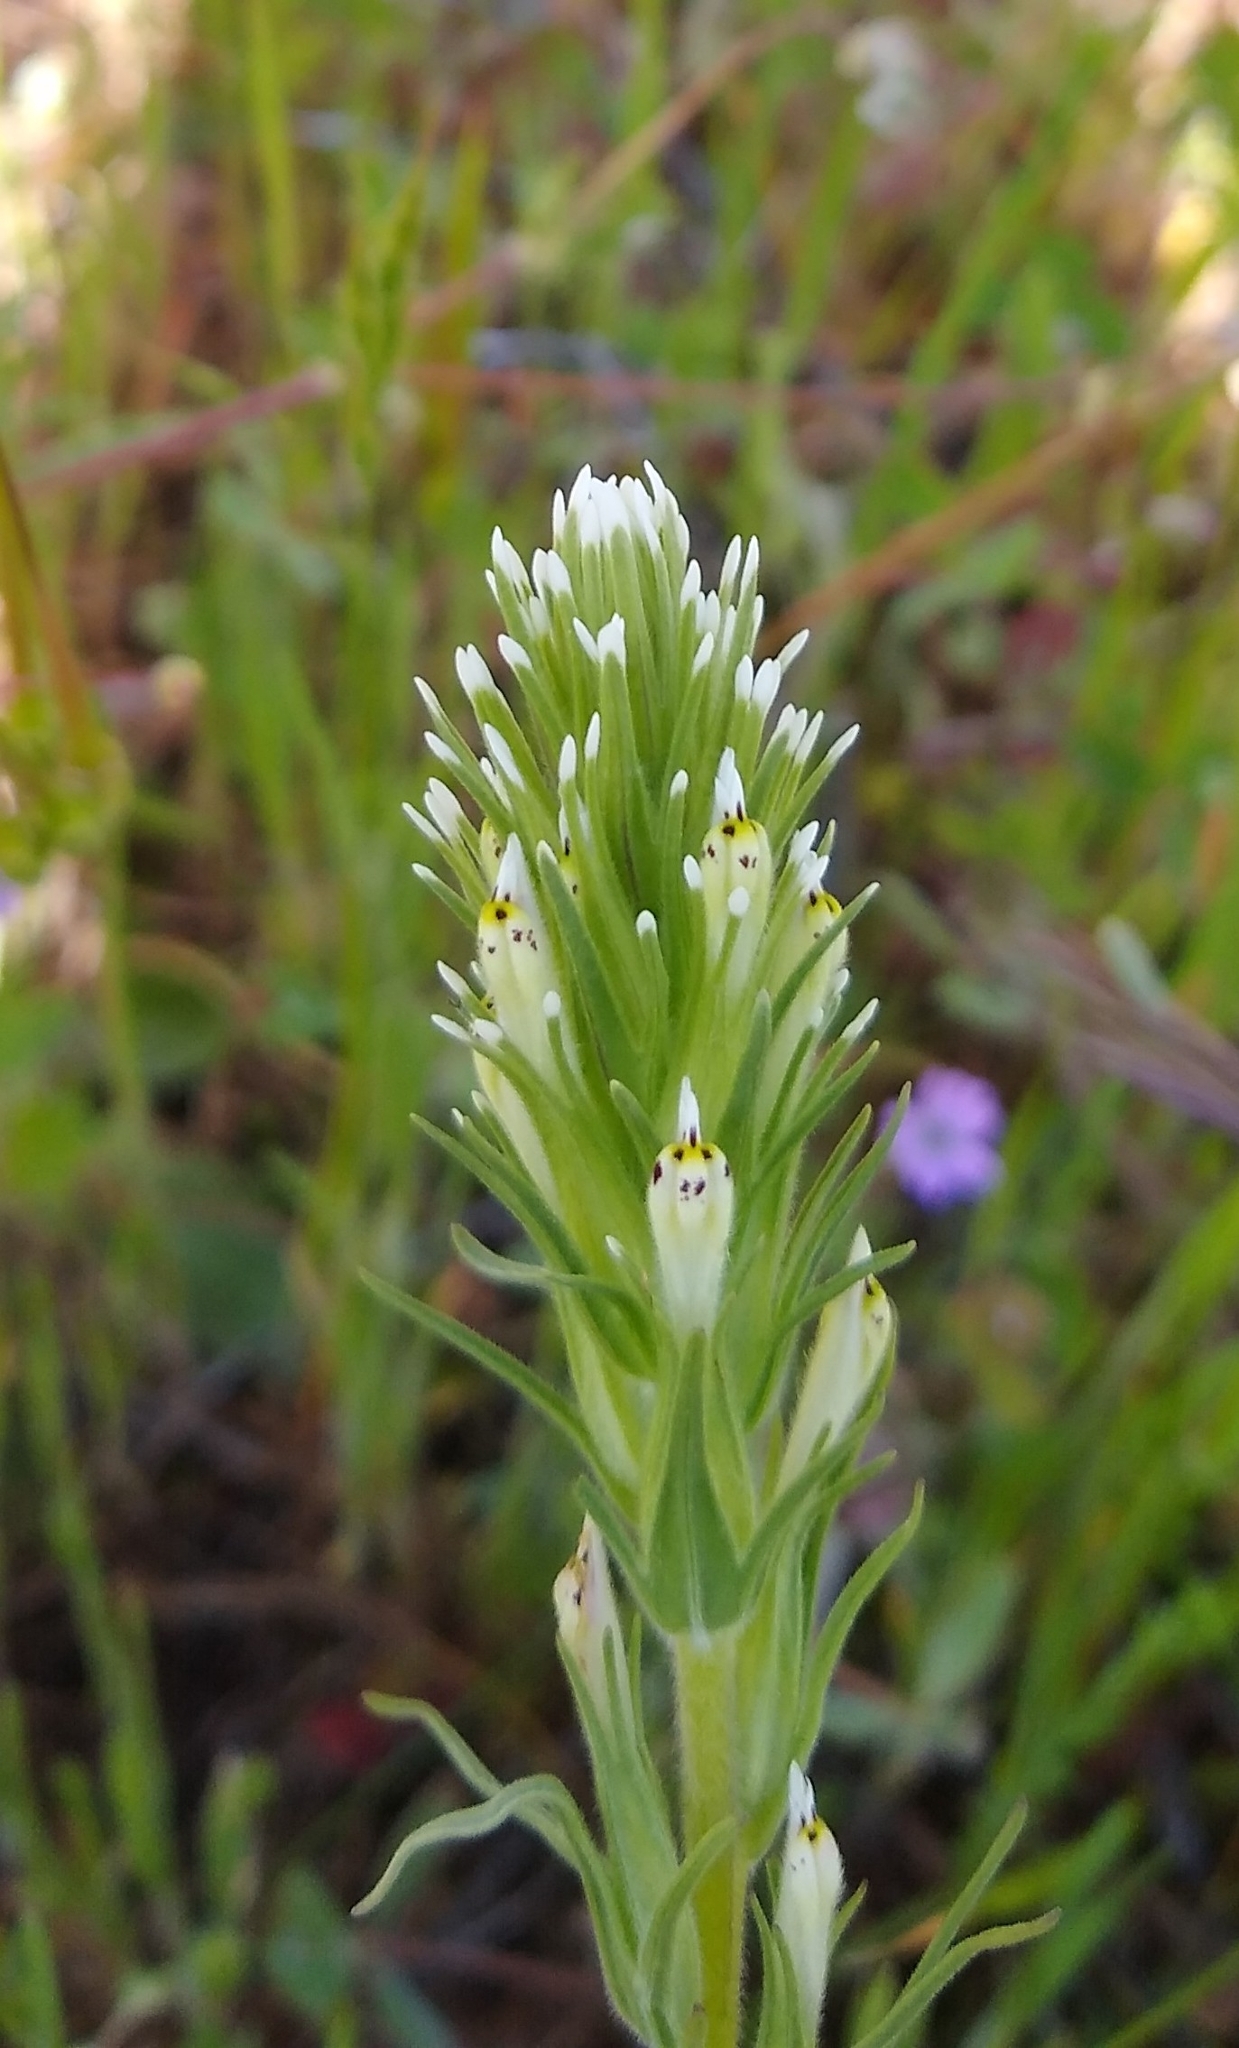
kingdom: Plantae
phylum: Tracheophyta
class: Magnoliopsida
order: Lamiales
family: Orobanchaceae
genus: Castilleja
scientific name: Castilleja attenuata
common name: Valley tassels
